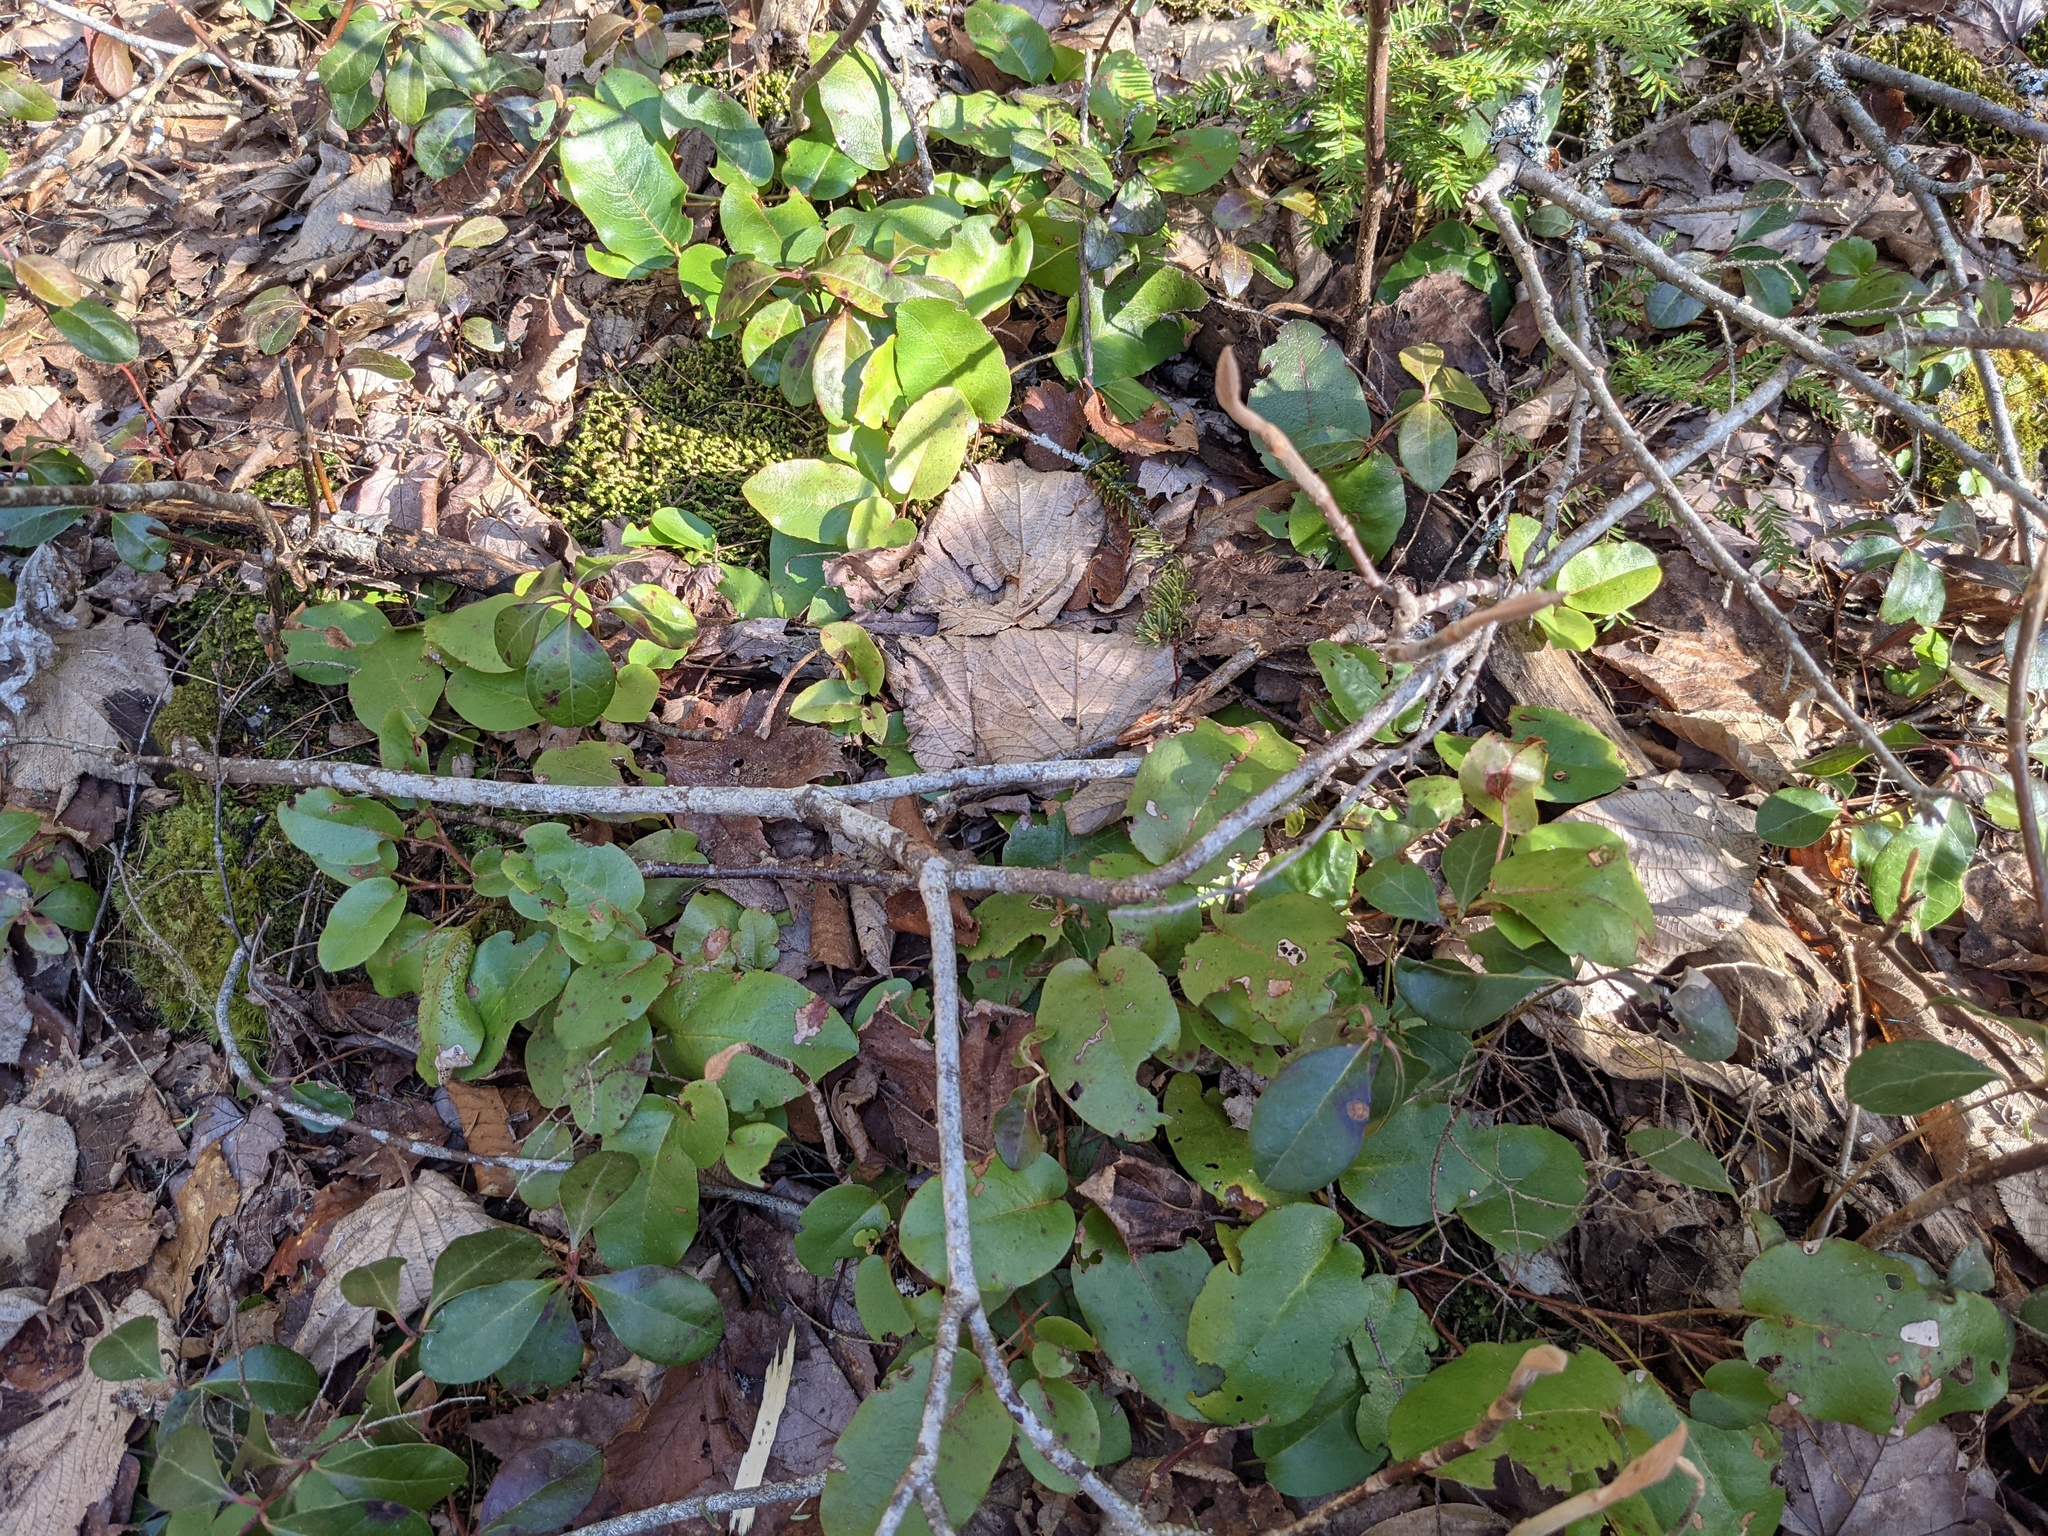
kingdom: Plantae
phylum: Tracheophyta
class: Magnoliopsida
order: Ericales
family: Ericaceae
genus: Epigaea
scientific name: Epigaea repens
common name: Gravelroot
